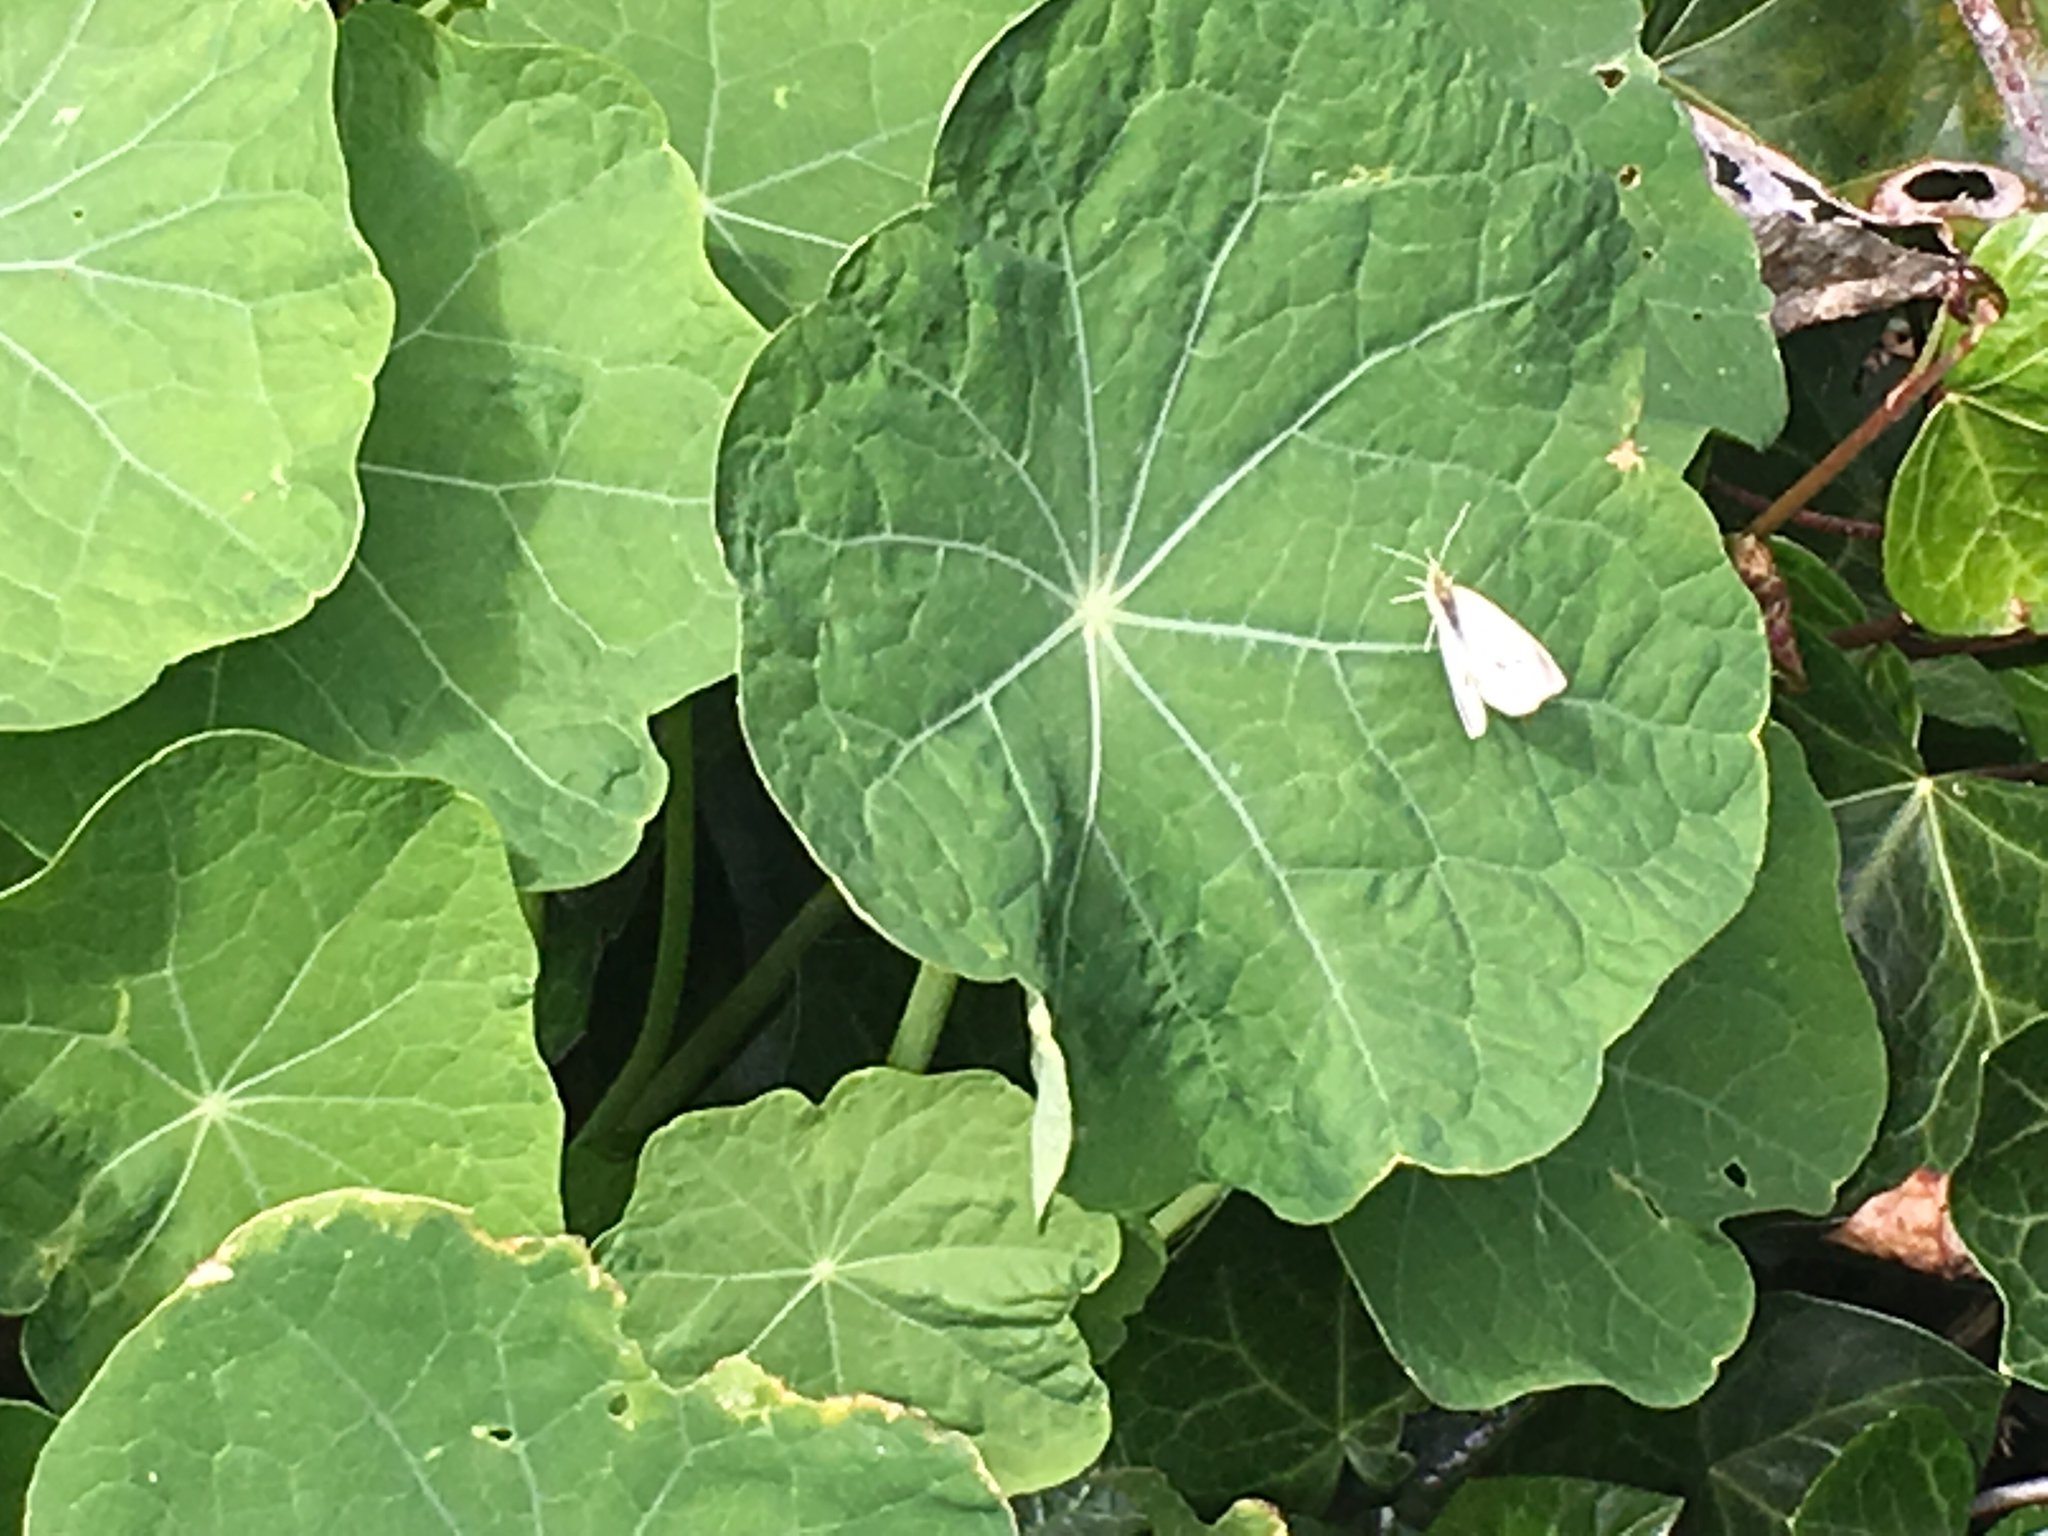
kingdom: Animalia
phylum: Arthropoda
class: Insecta
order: Lepidoptera
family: Pieridae
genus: Pieris
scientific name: Pieris rapae
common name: Small white
